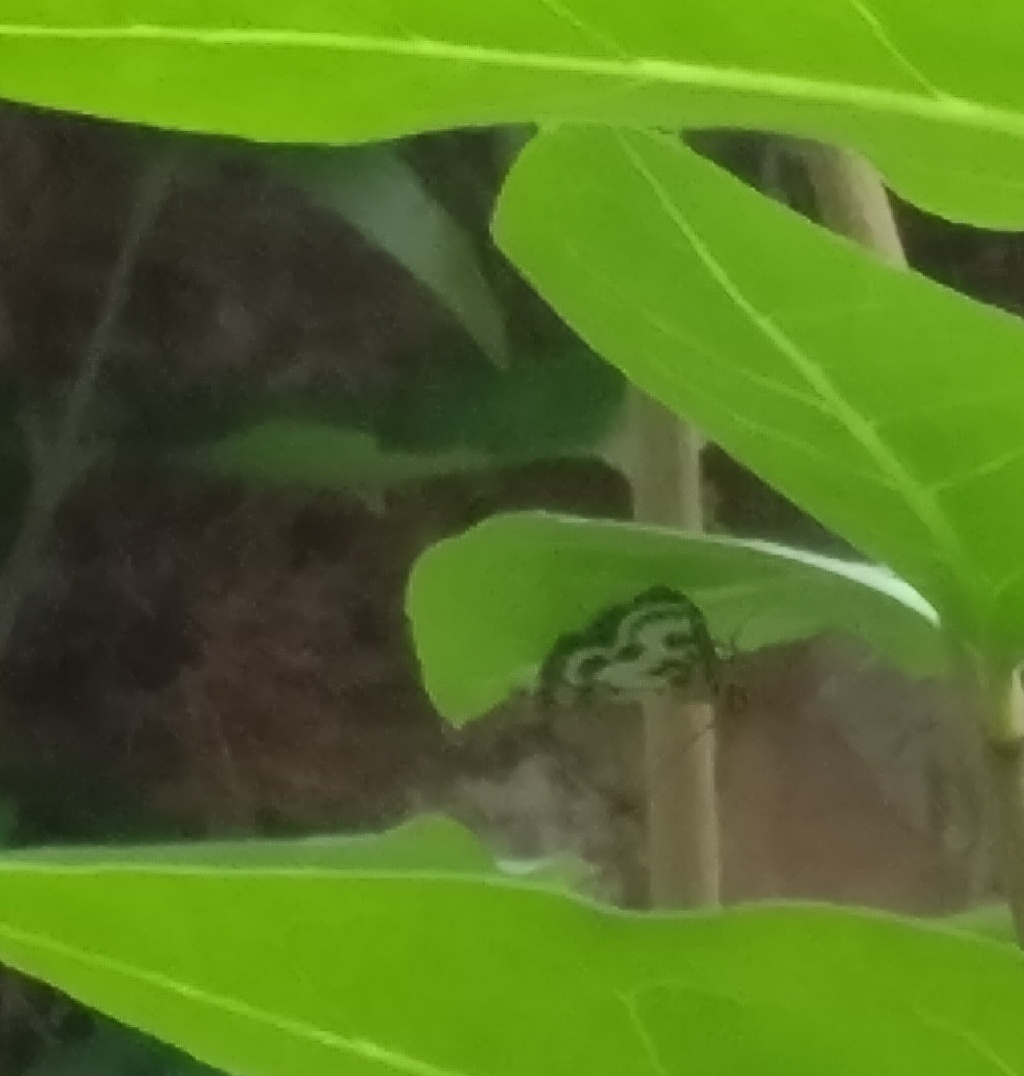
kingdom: Animalia
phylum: Arthropoda
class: Insecta
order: Lepidoptera
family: Crambidae
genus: Anania
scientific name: Anania hortulata
